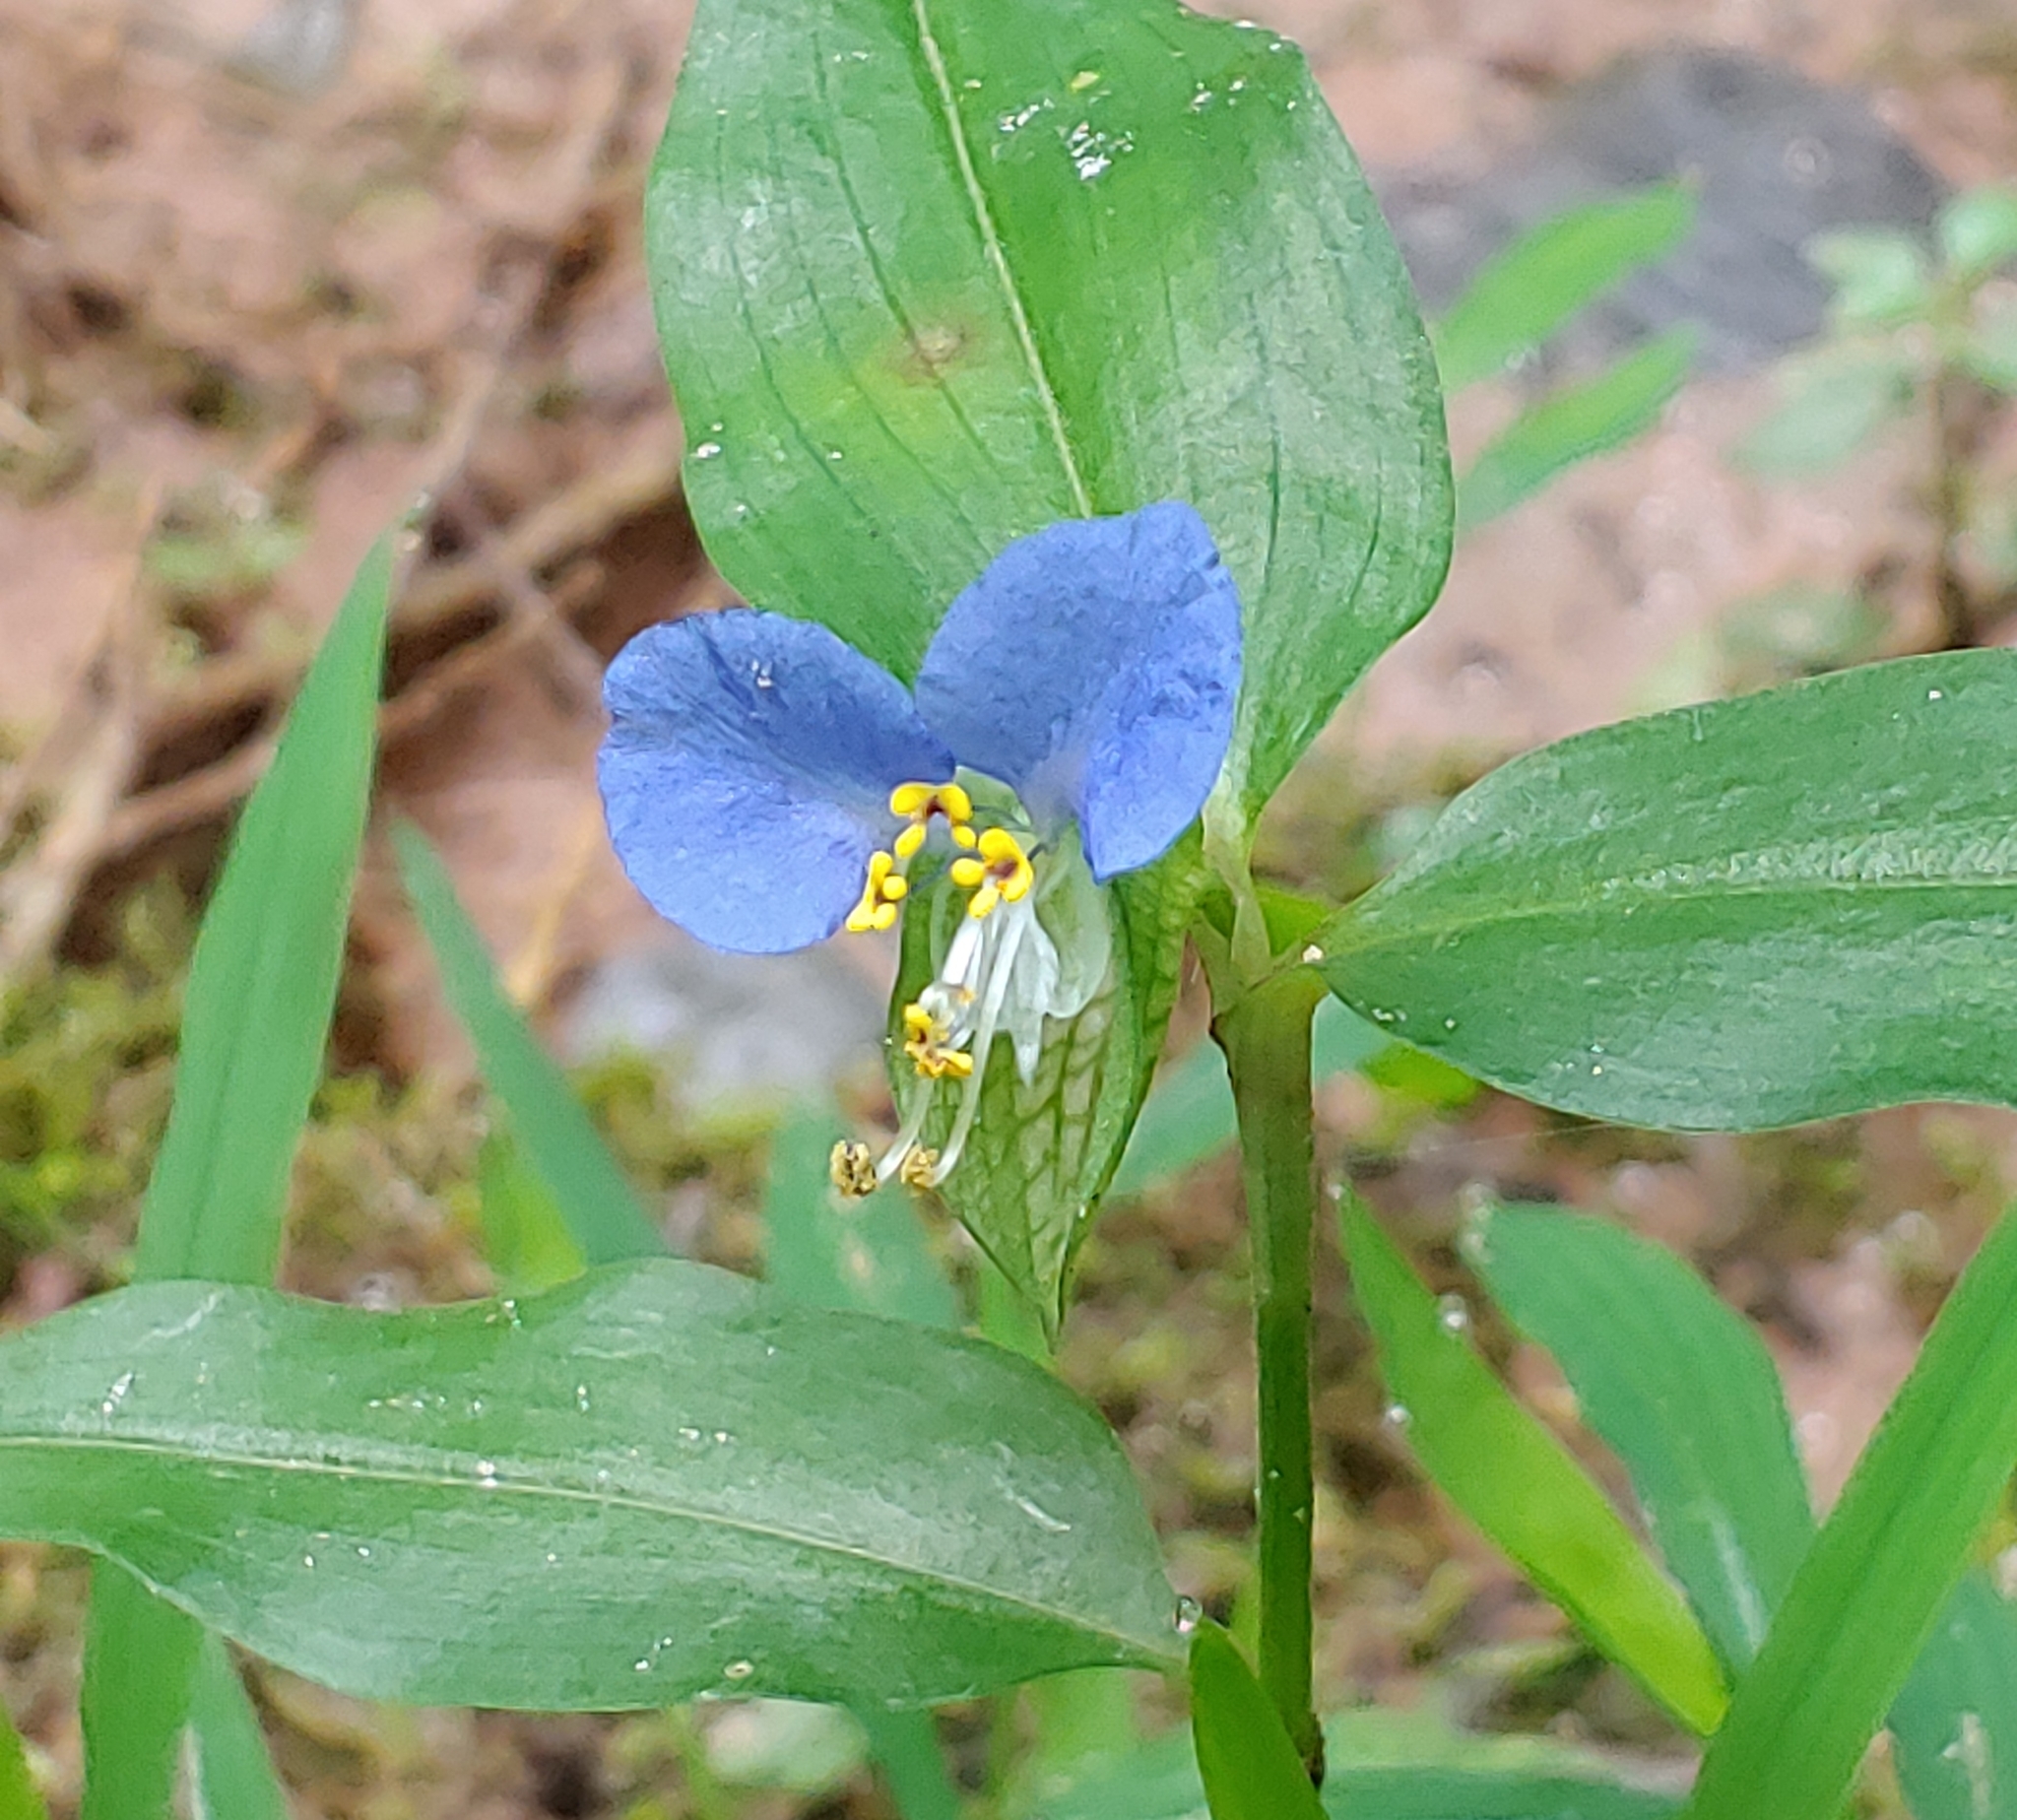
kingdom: Plantae
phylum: Tracheophyta
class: Liliopsida
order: Commelinales
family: Commelinaceae
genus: Commelina
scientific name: Commelina communis
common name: Asiatic dayflower
